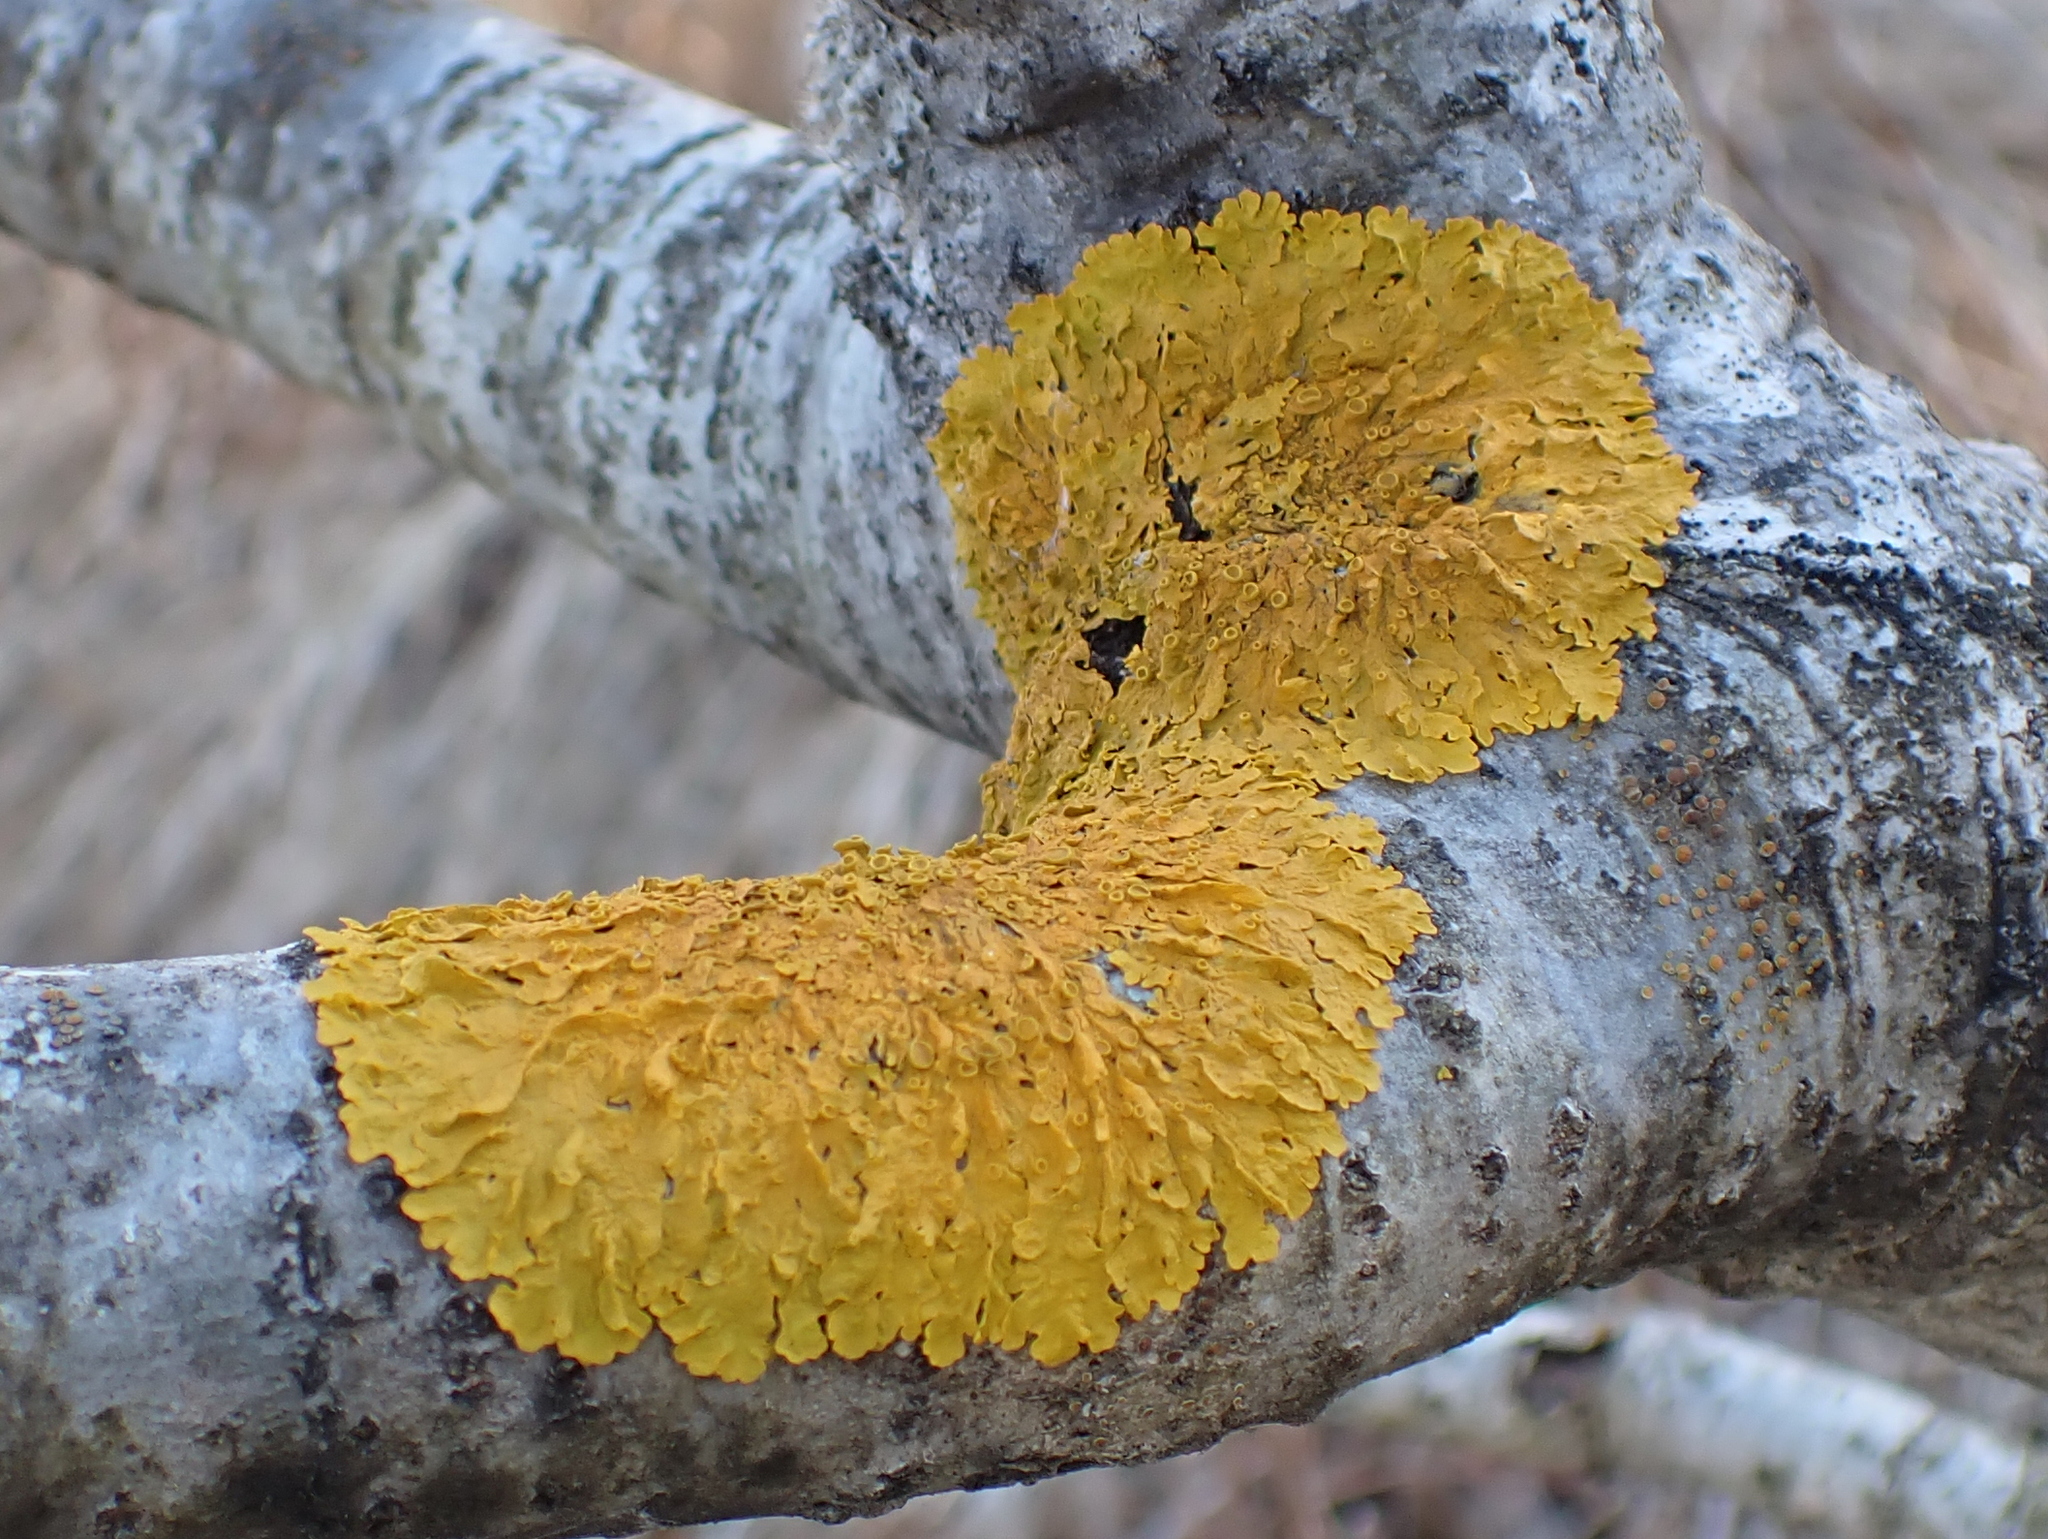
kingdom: Fungi
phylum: Ascomycota
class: Lecanoromycetes
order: Teloschistales
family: Teloschistaceae
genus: Xanthoria
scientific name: Xanthoria parietina
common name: Common orange lichen
